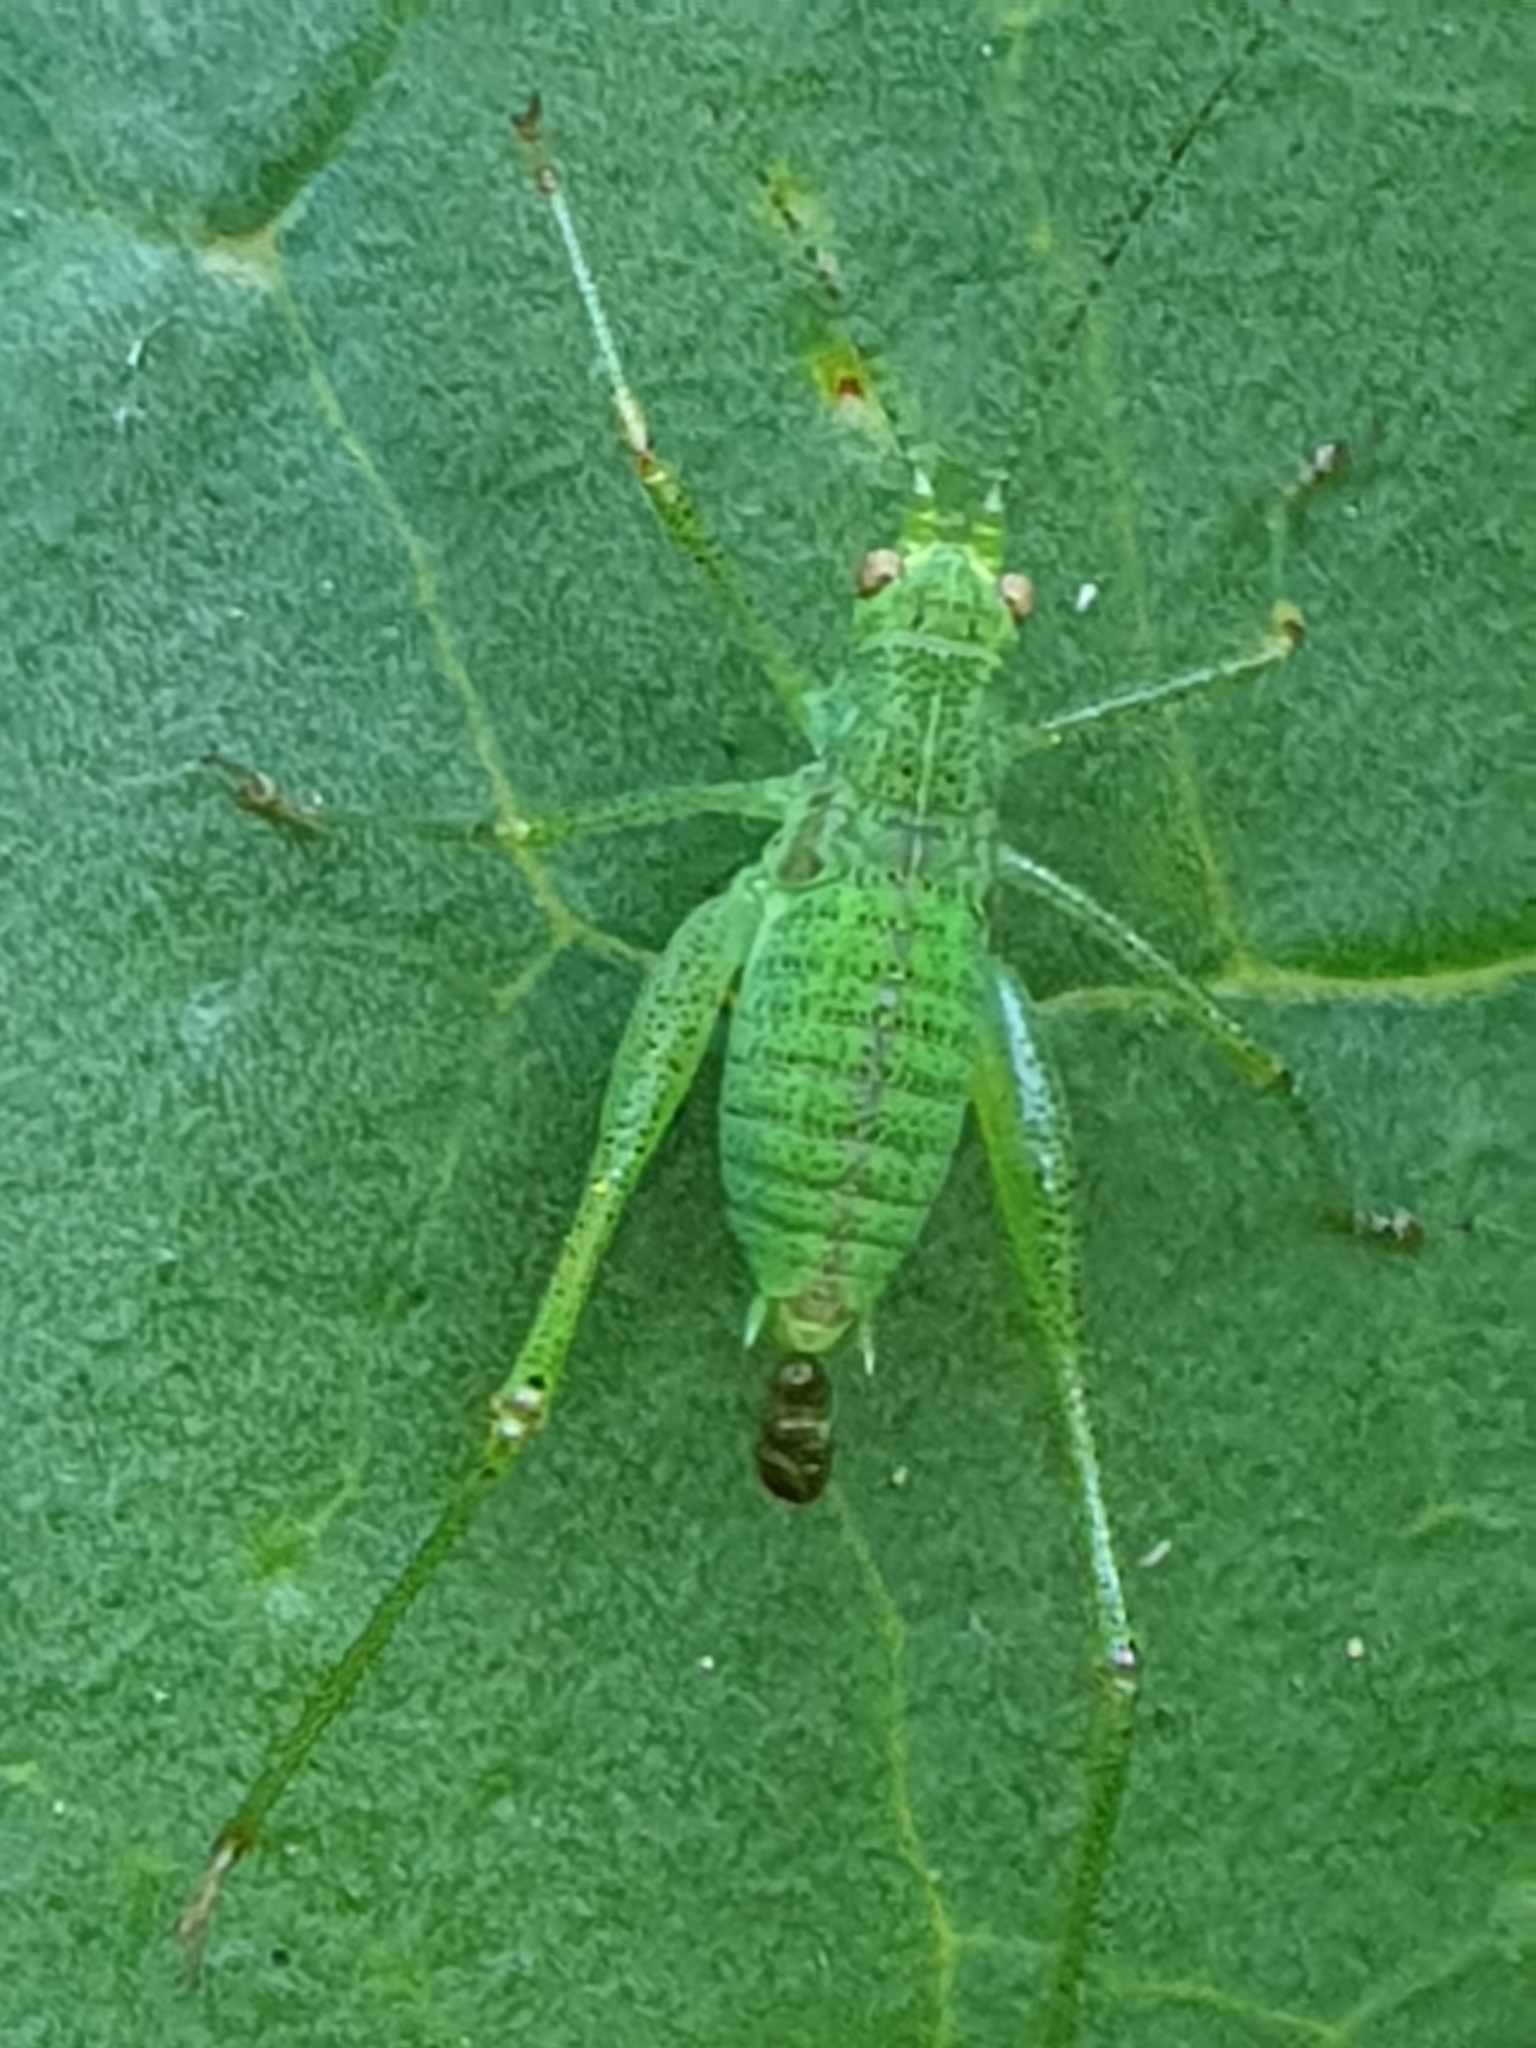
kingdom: Animalia
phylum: Arthropoda
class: Insecta
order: Orthoptera
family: Tettigoniidae
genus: Phaneroptera
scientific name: Phaneroptera nana
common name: Southern sickle bush-cricket
